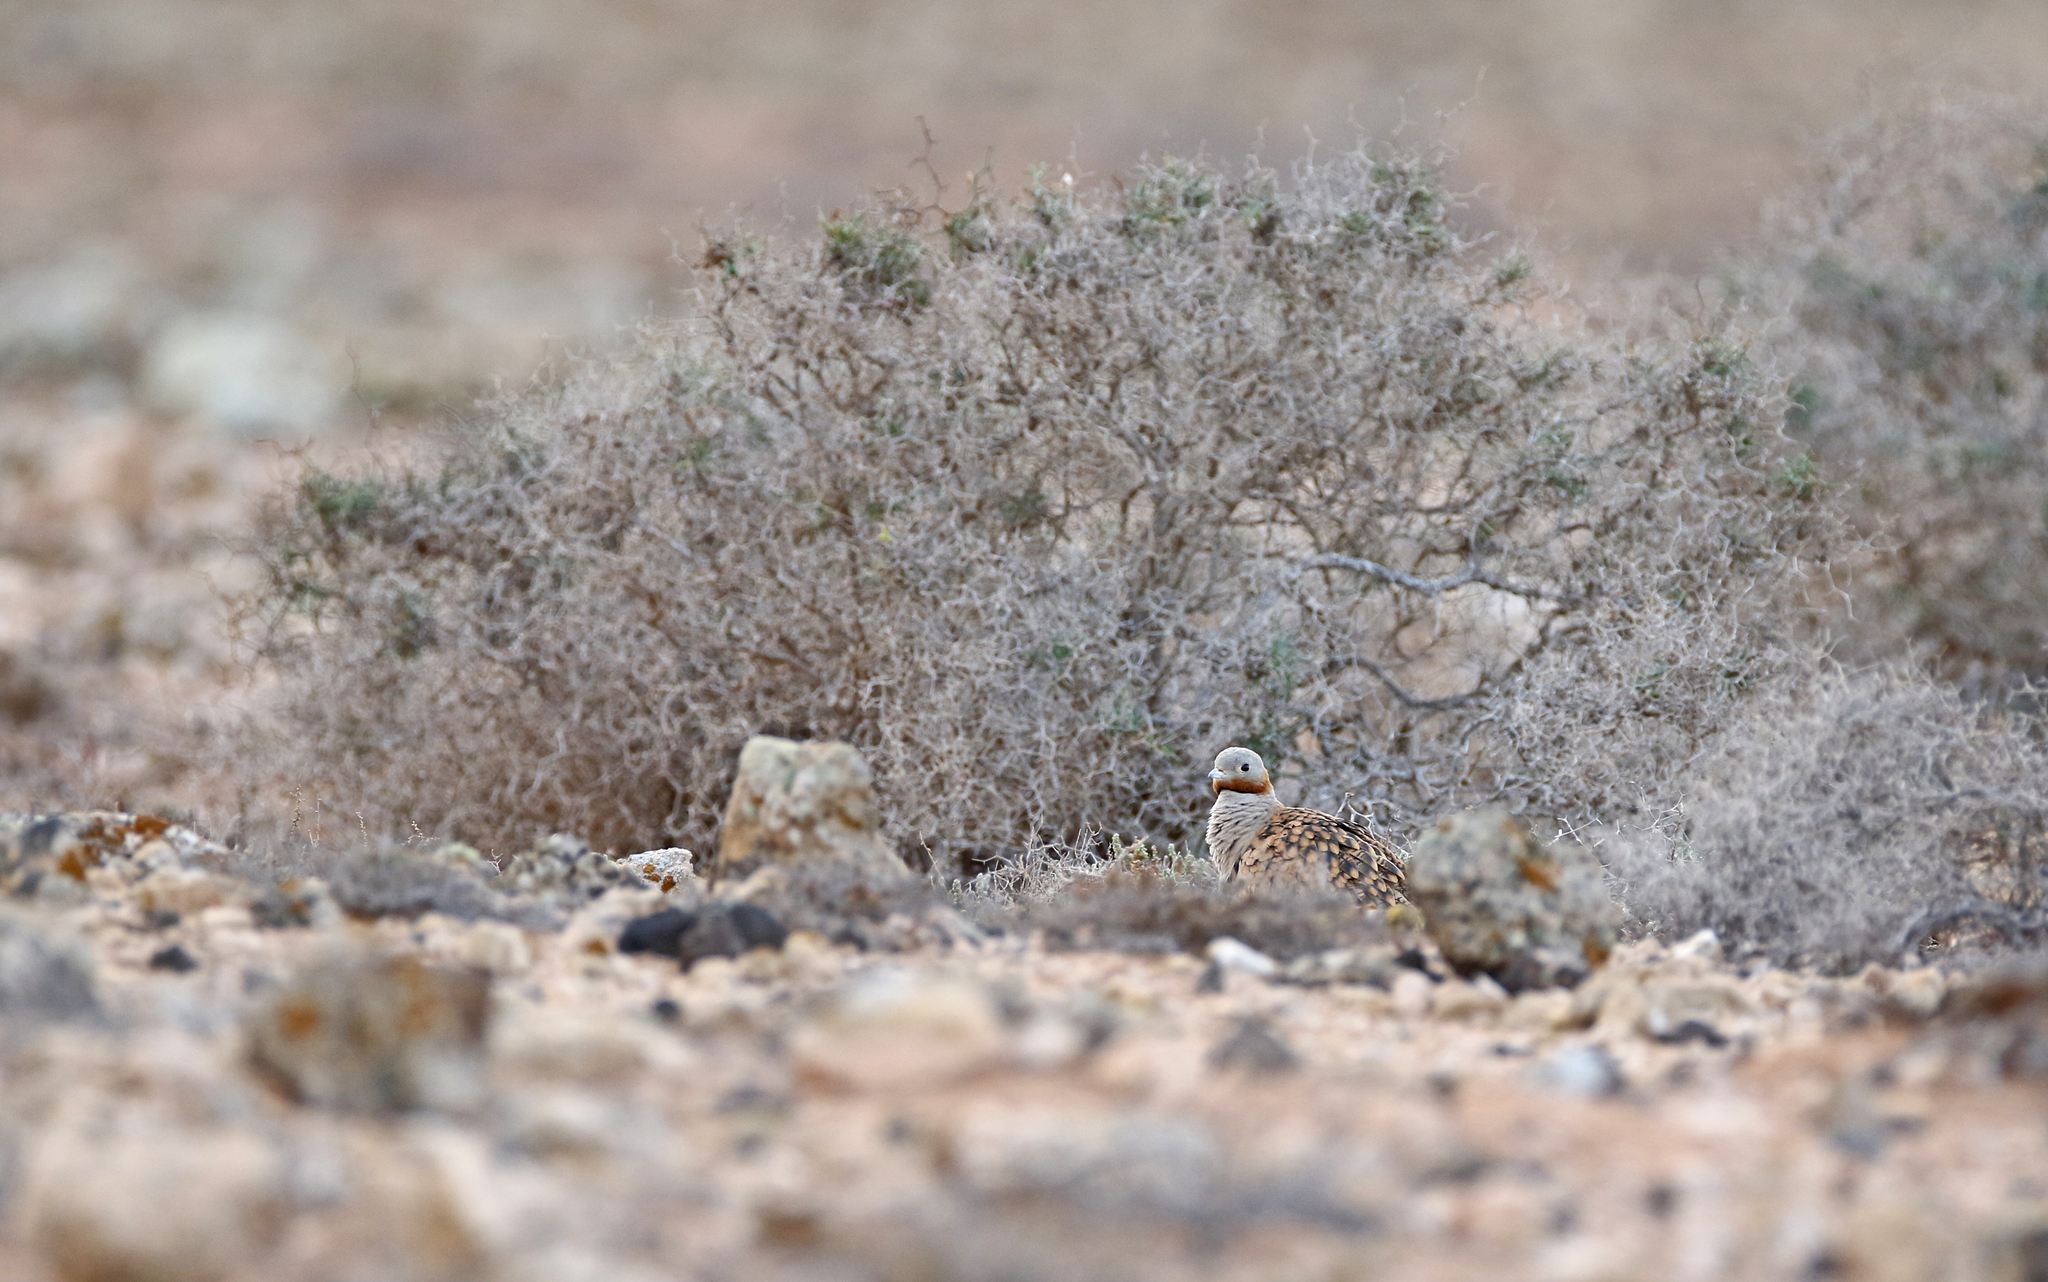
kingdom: Animalia
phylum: Chordata
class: Aves
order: Pteroclidiformes
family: Pteroclididae
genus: Pterocles
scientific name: Pterocles orientalis
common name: Black-bellied sandgrouse
